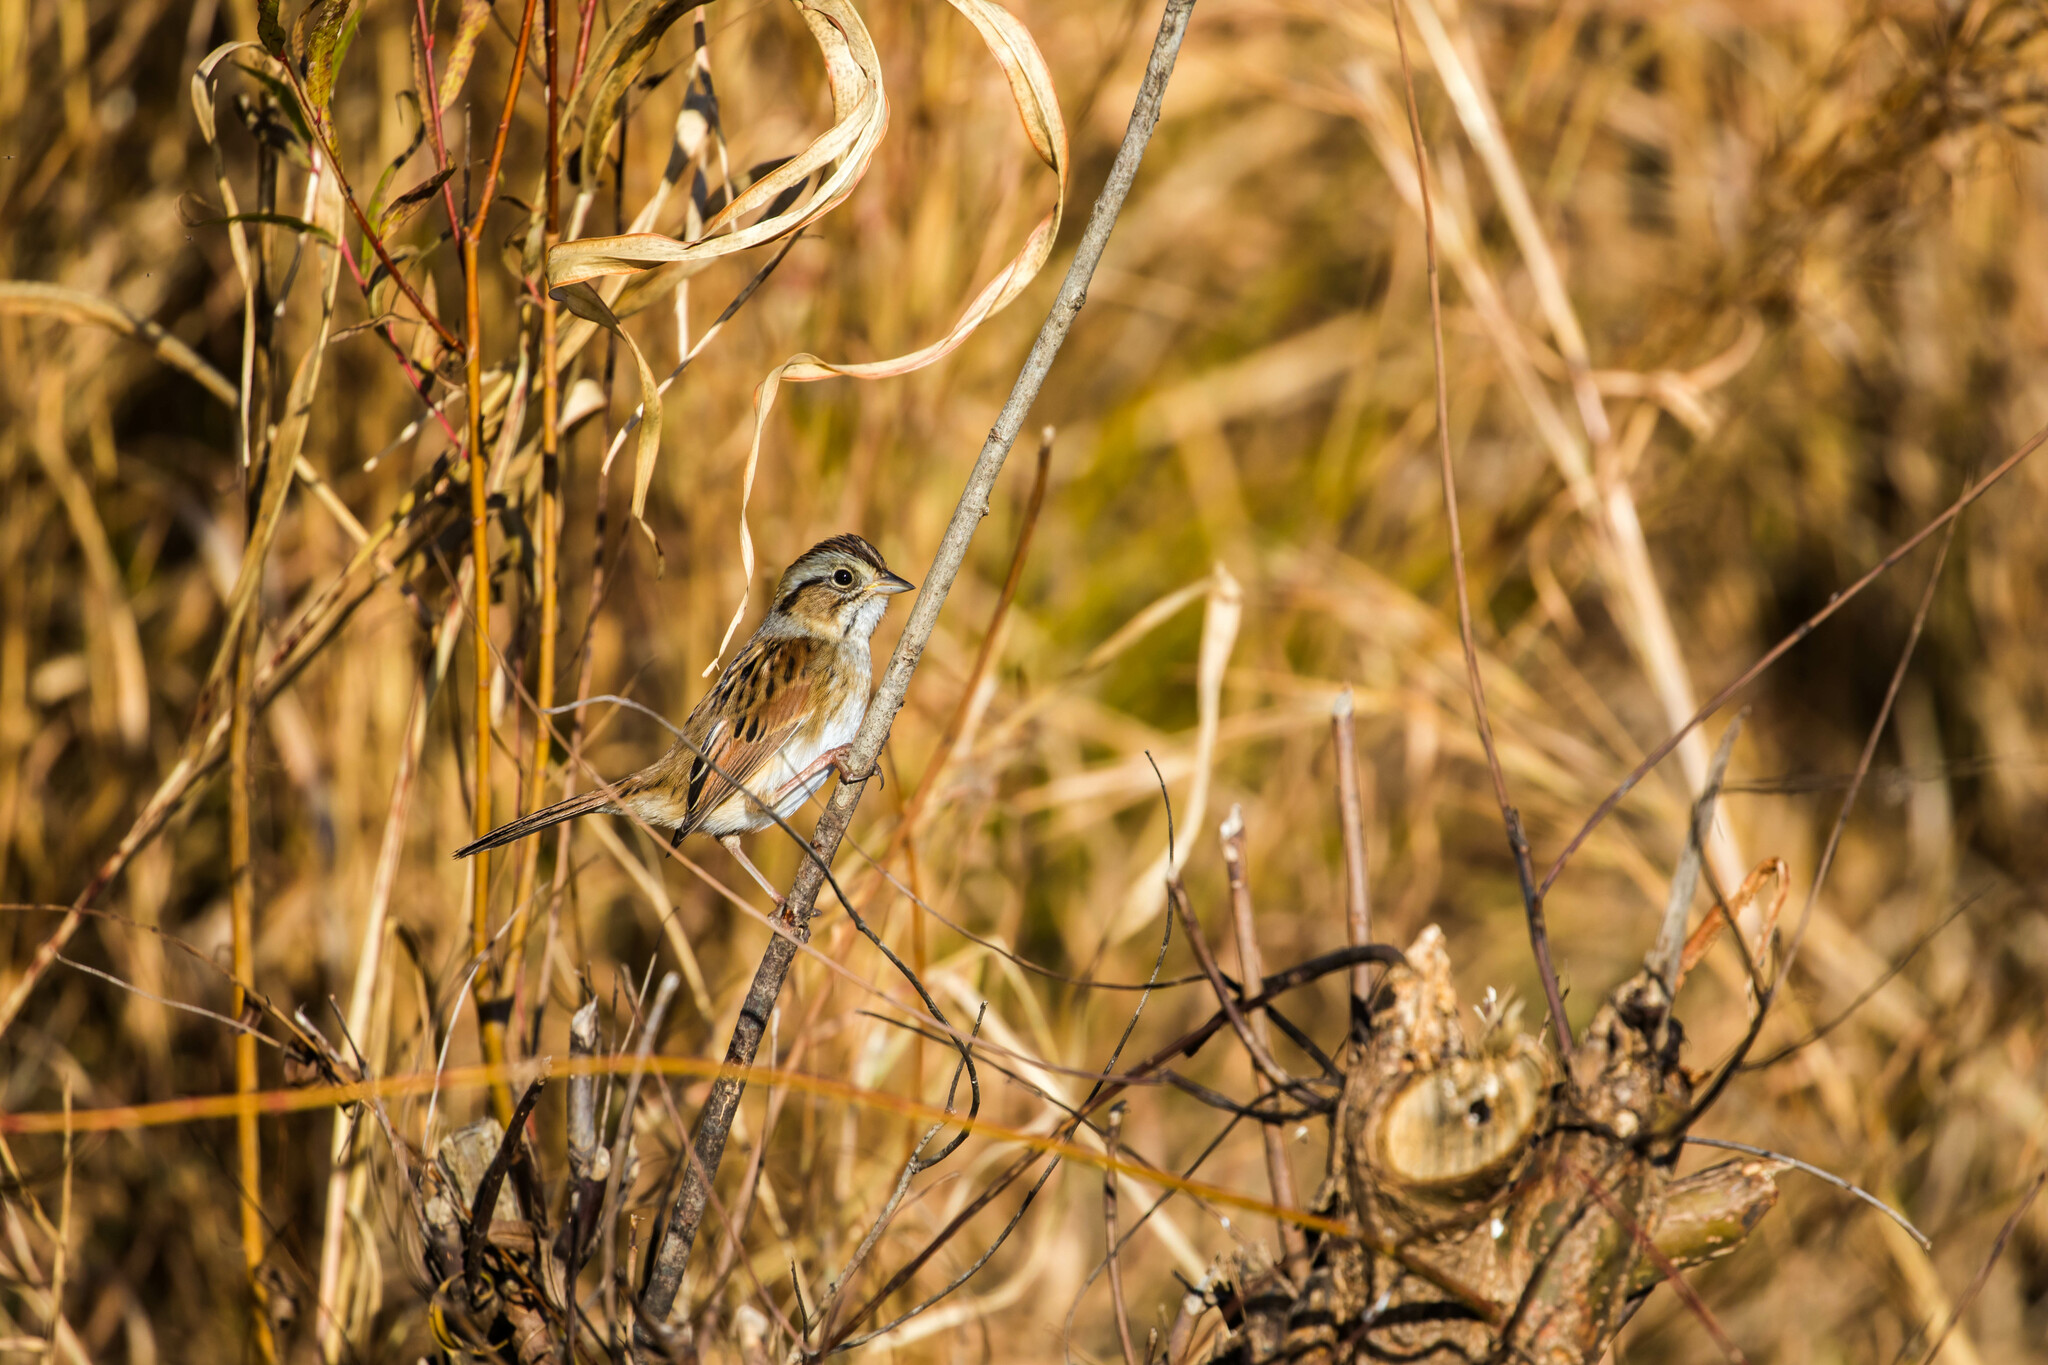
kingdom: Animalia
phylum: Chordata
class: Aves
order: Passeriformes
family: Passerellidae
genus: Melospiza
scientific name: Melospiza georgiana
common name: Swamp sparrow
